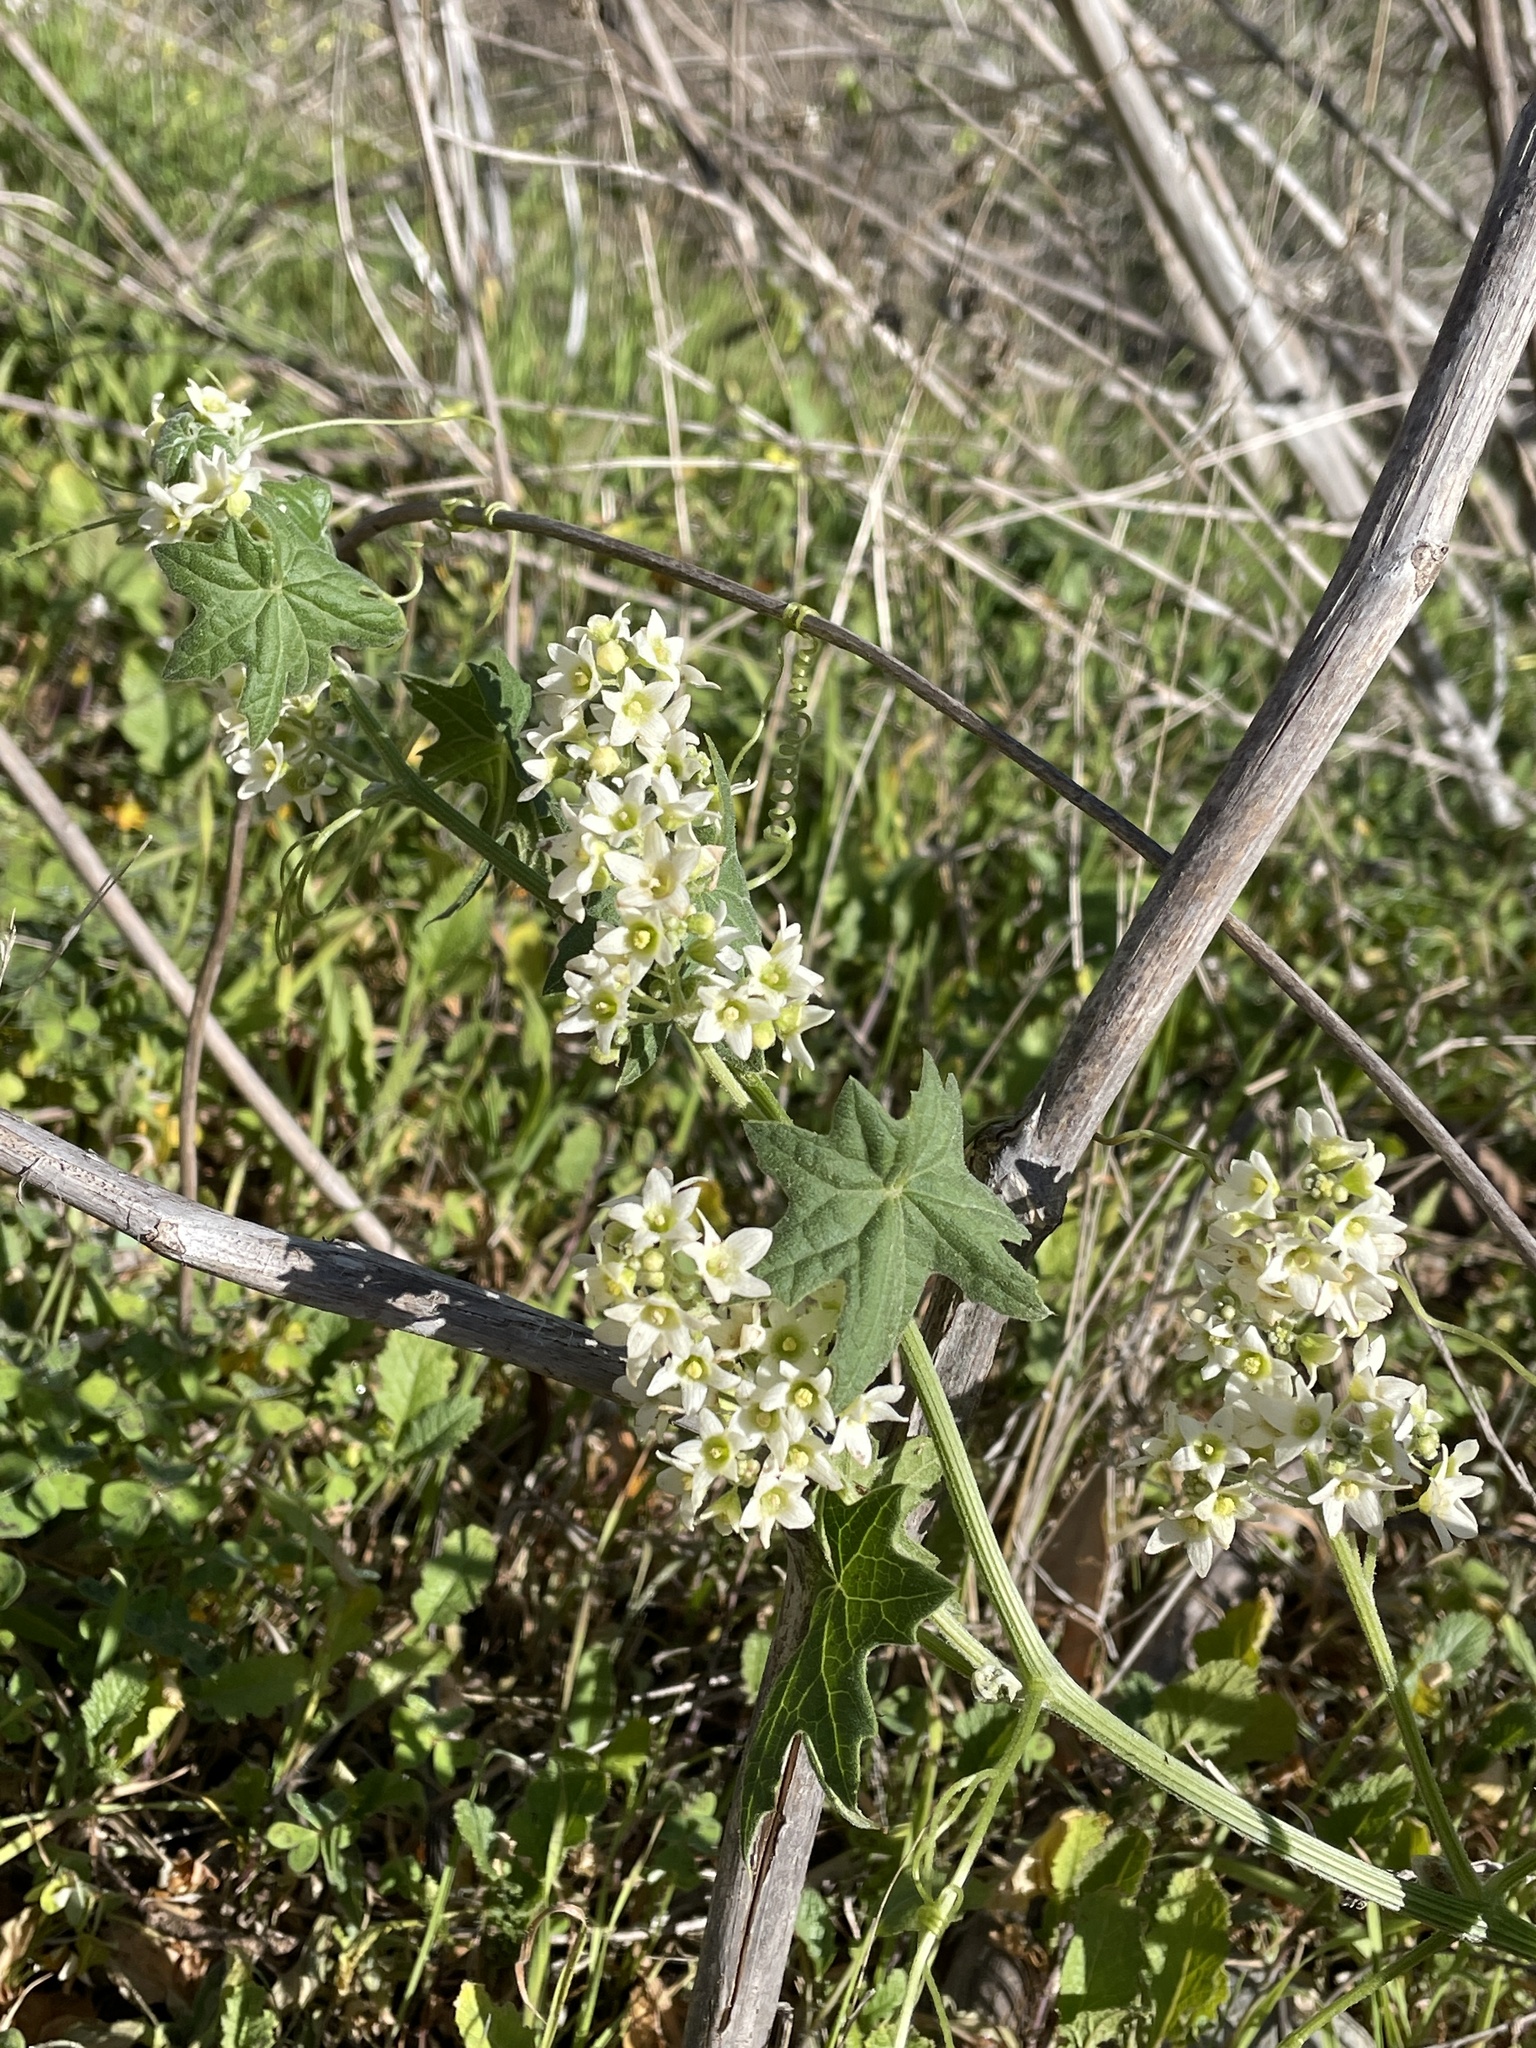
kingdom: Plantae
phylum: Tracheophyta
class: Magnoliopsida
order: Cucurbitales
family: Cucurbitaceae
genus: Marah
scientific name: Marah macrocarpa
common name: Cucamonga manroot
